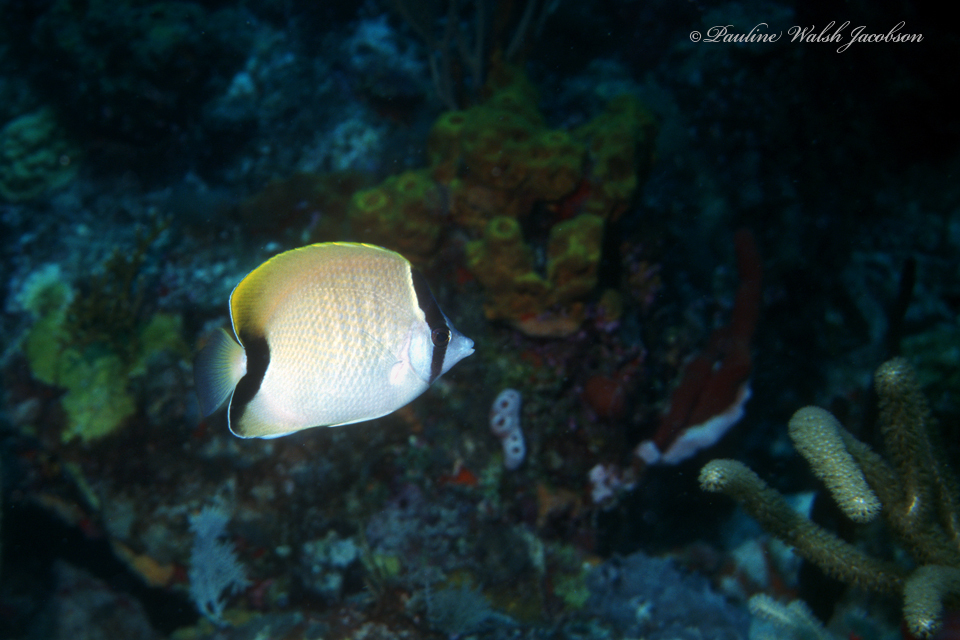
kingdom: Animalia
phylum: Chordata
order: Perciformes
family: Chaetodontidae
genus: Chaetodon
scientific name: Chaetodon sedentarius
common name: Reef butterflyfish
